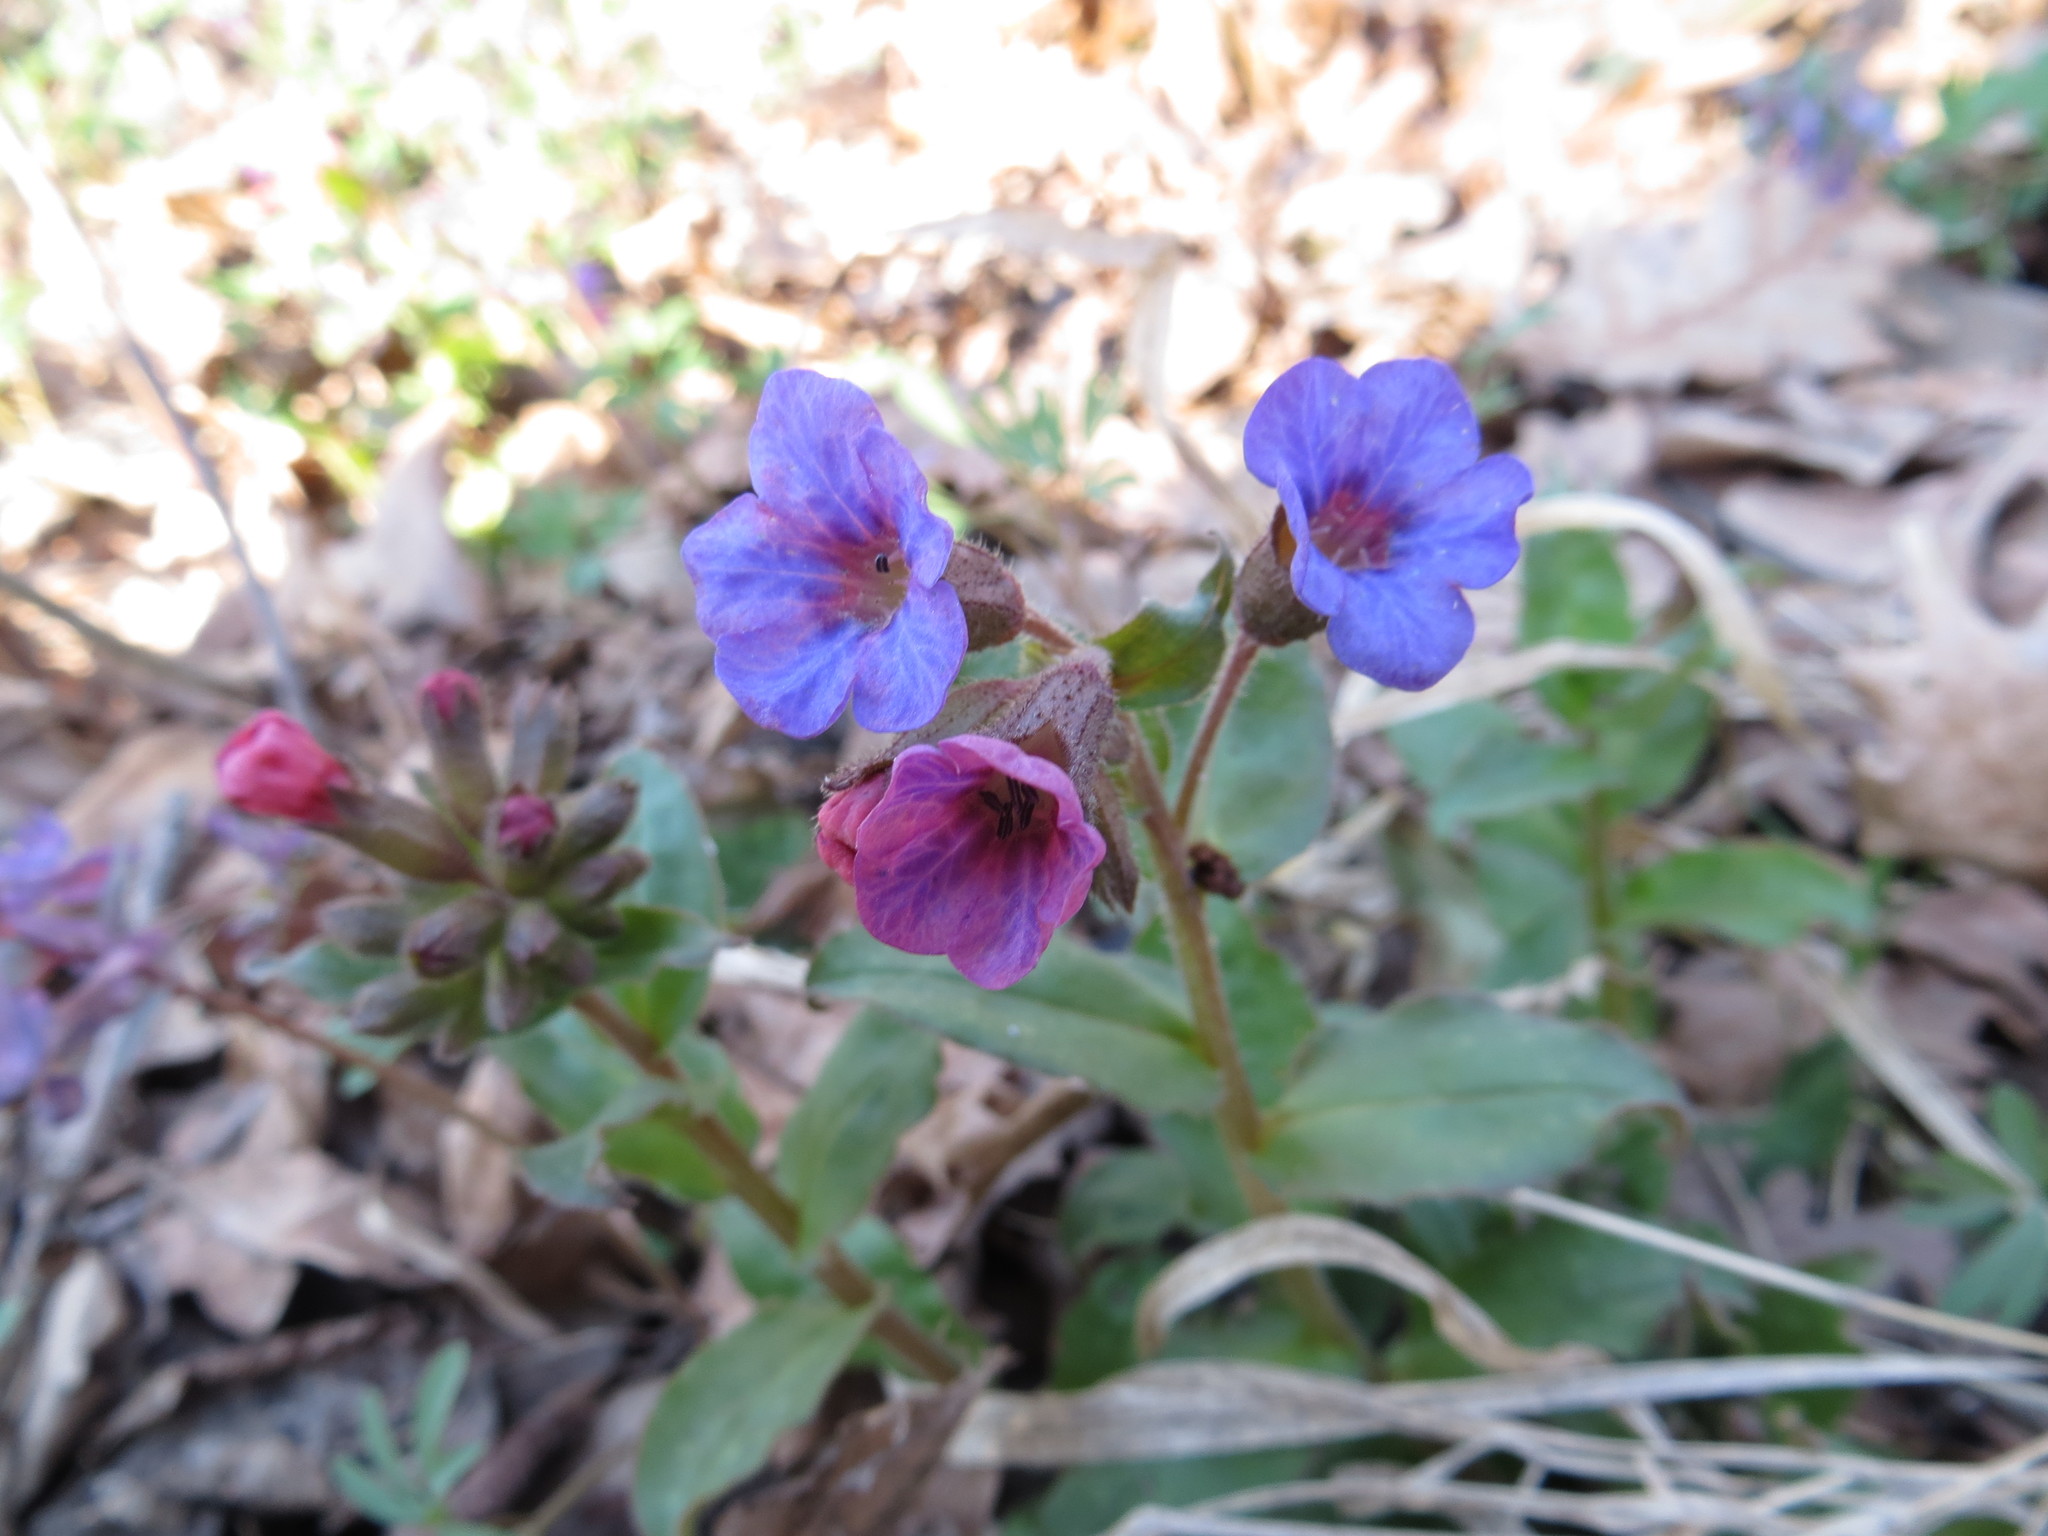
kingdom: Plantae
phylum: Tracheophyta
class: Magnoliopsida
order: Boraginales
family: Boraginaceae
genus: Pulmonaria
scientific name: Pulmonaria obscura
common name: Suffolk lungwort
